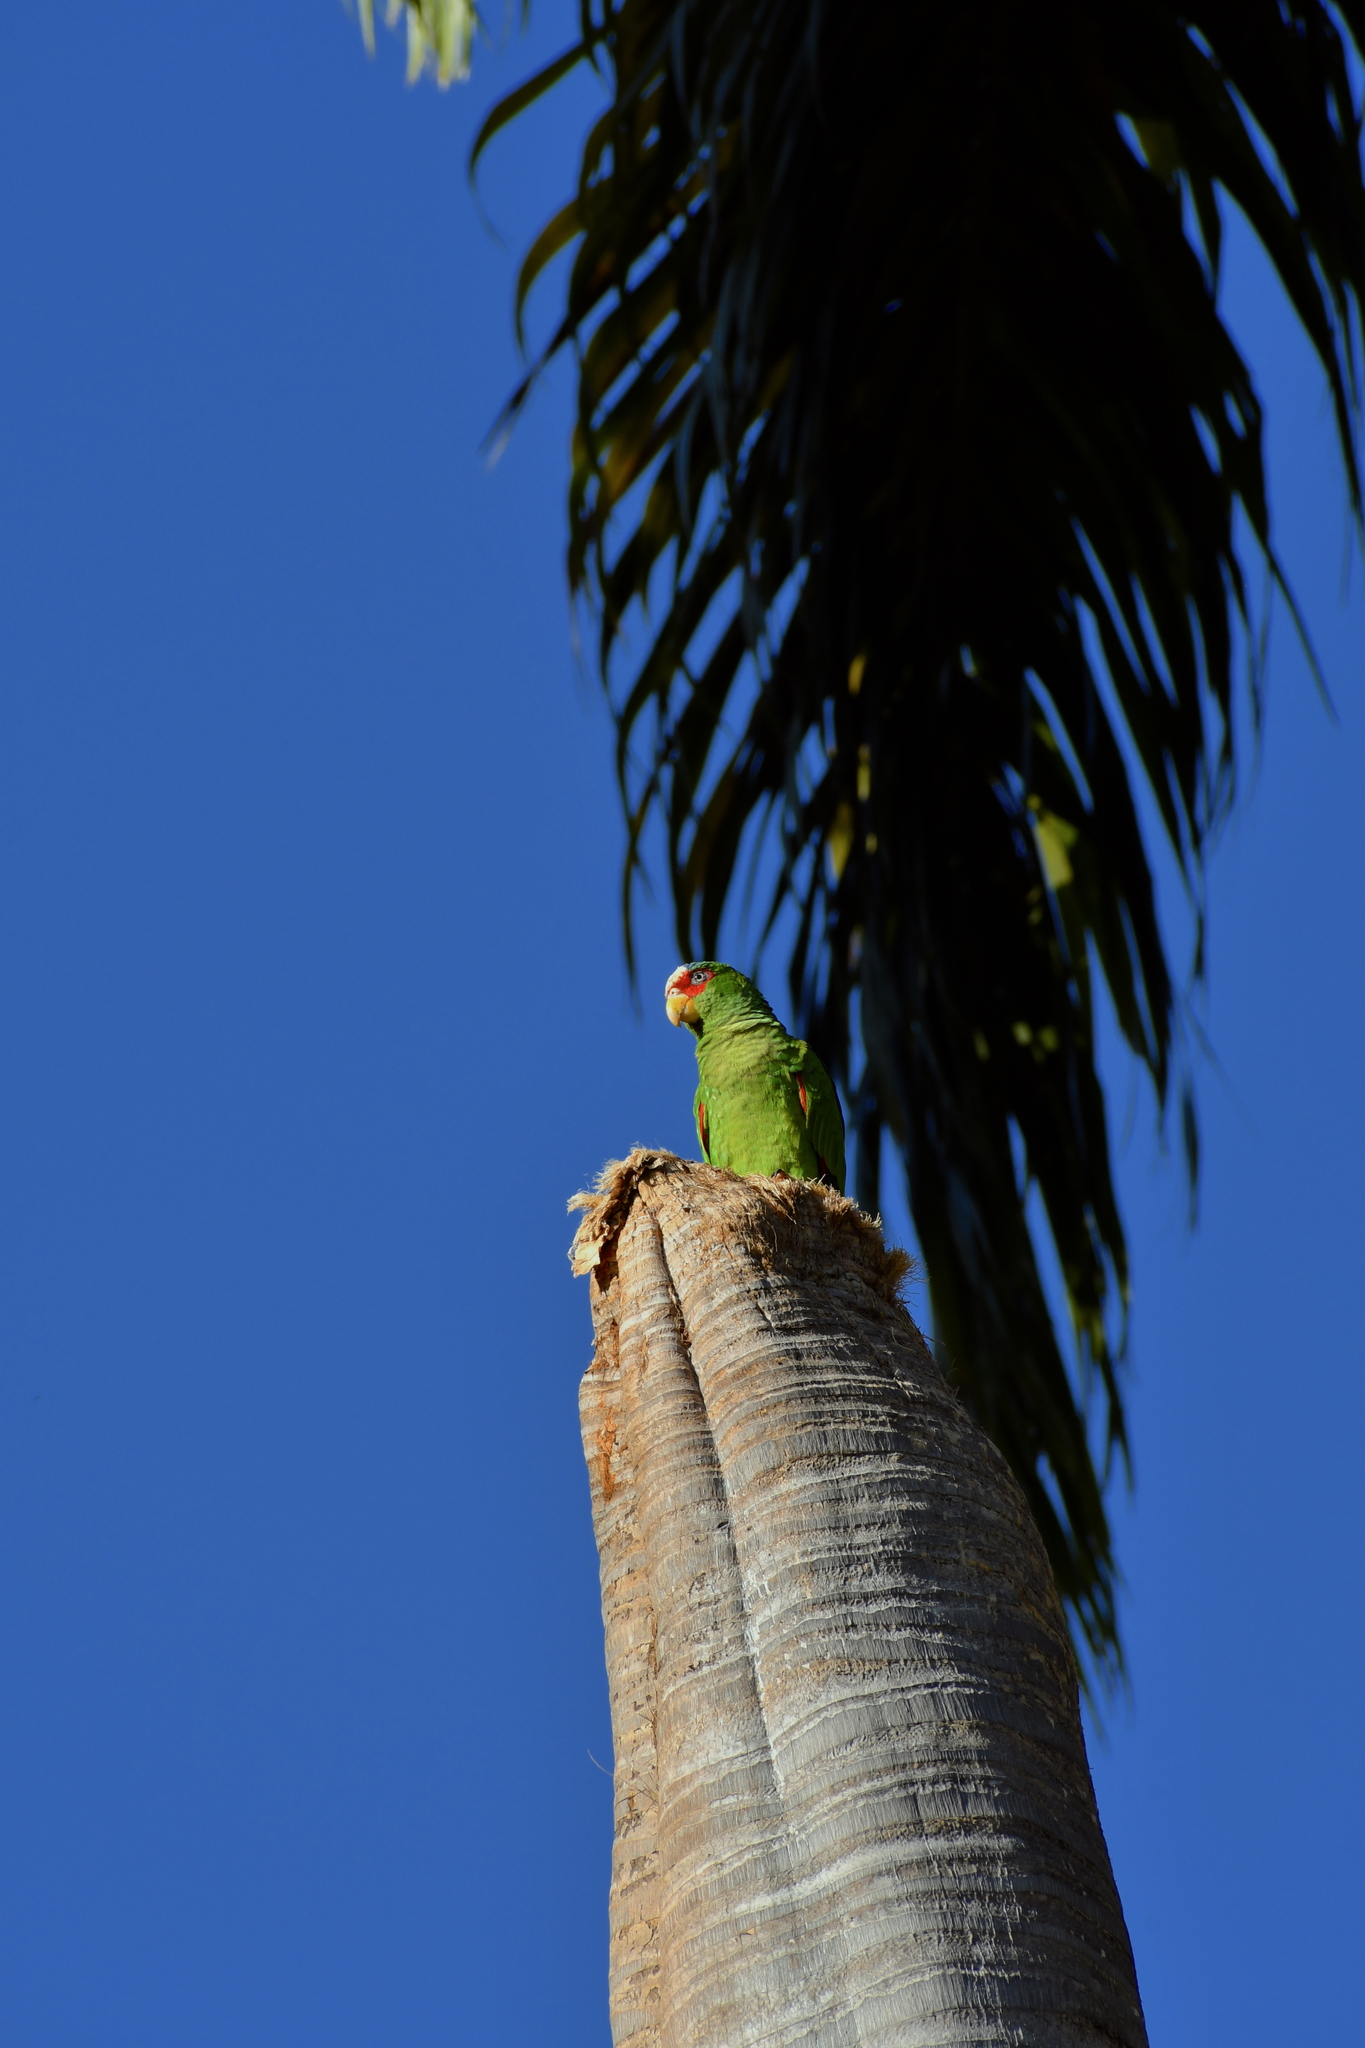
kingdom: Animalia
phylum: Chordata
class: Aves
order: Psittaciformes
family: Psittacidae
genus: Amazona
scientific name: Amazona albifrons
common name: White-fronted amazon
